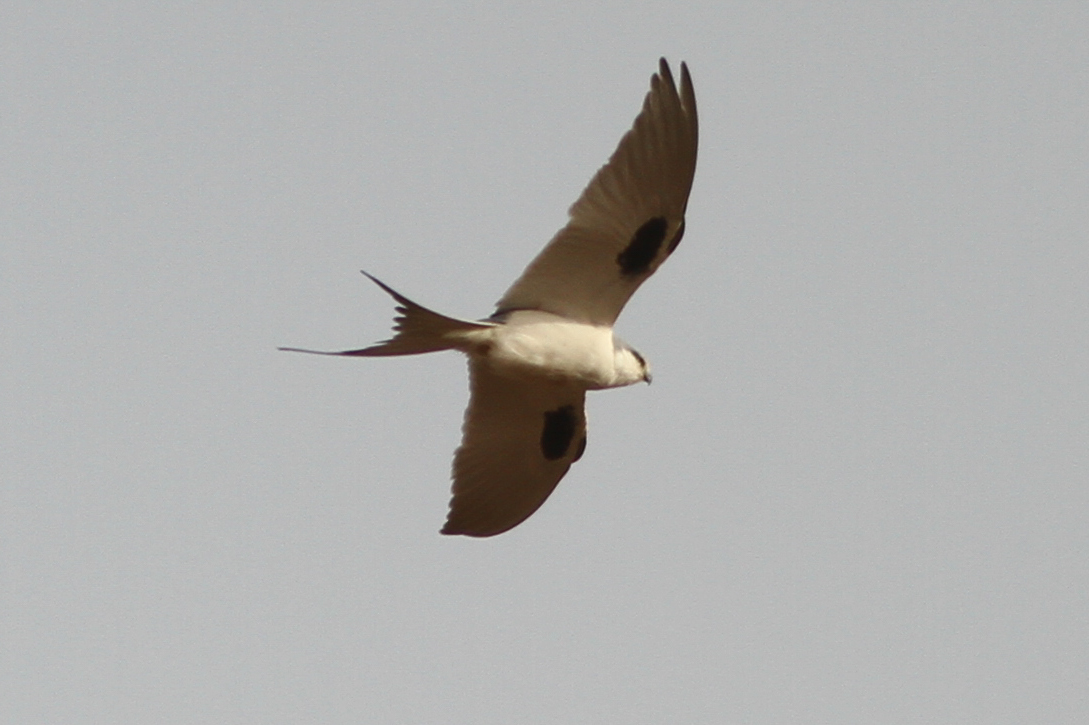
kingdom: Animalia
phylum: Chordata
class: Aves
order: Accipitriformes
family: Accipitridae
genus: Chelictinia
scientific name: Chelictinia riocourii
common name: Scissor-tailed kite
